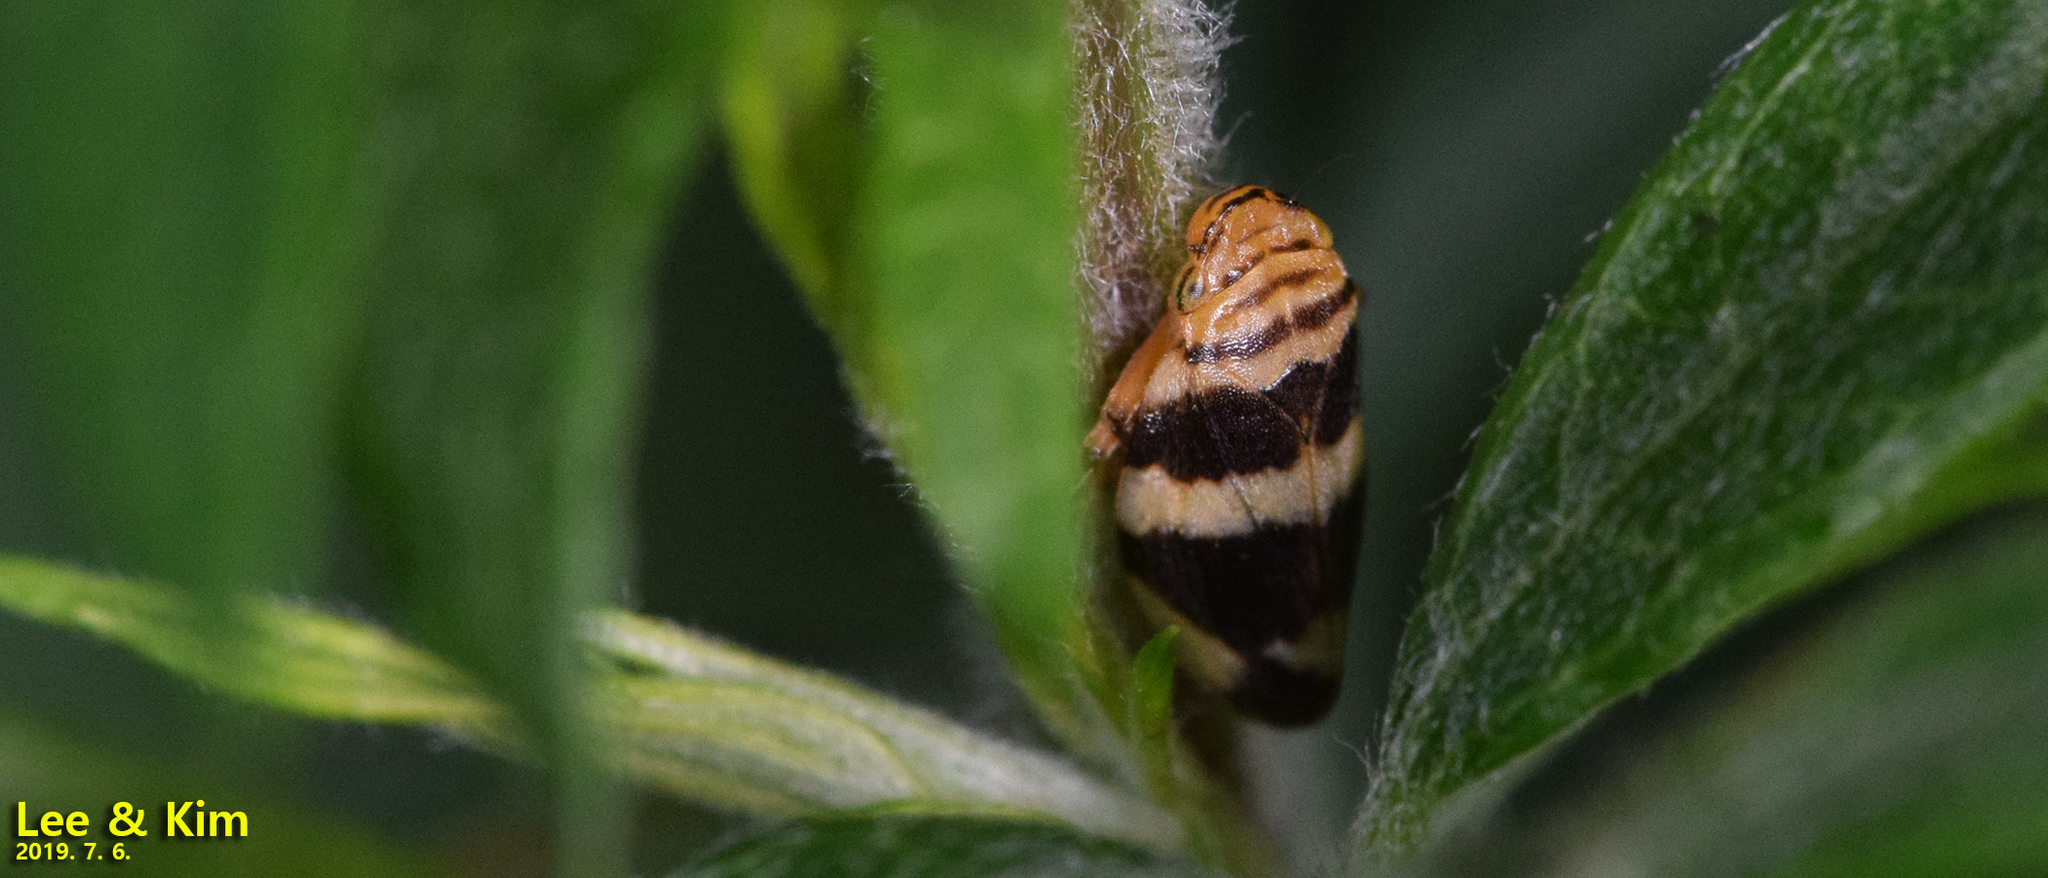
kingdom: Animalia
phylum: Arthropoda
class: Insecta
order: Hemiptera
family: Aphrophoridae
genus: Mesoptyelus
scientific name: Mesoptyelus nigrifrons
